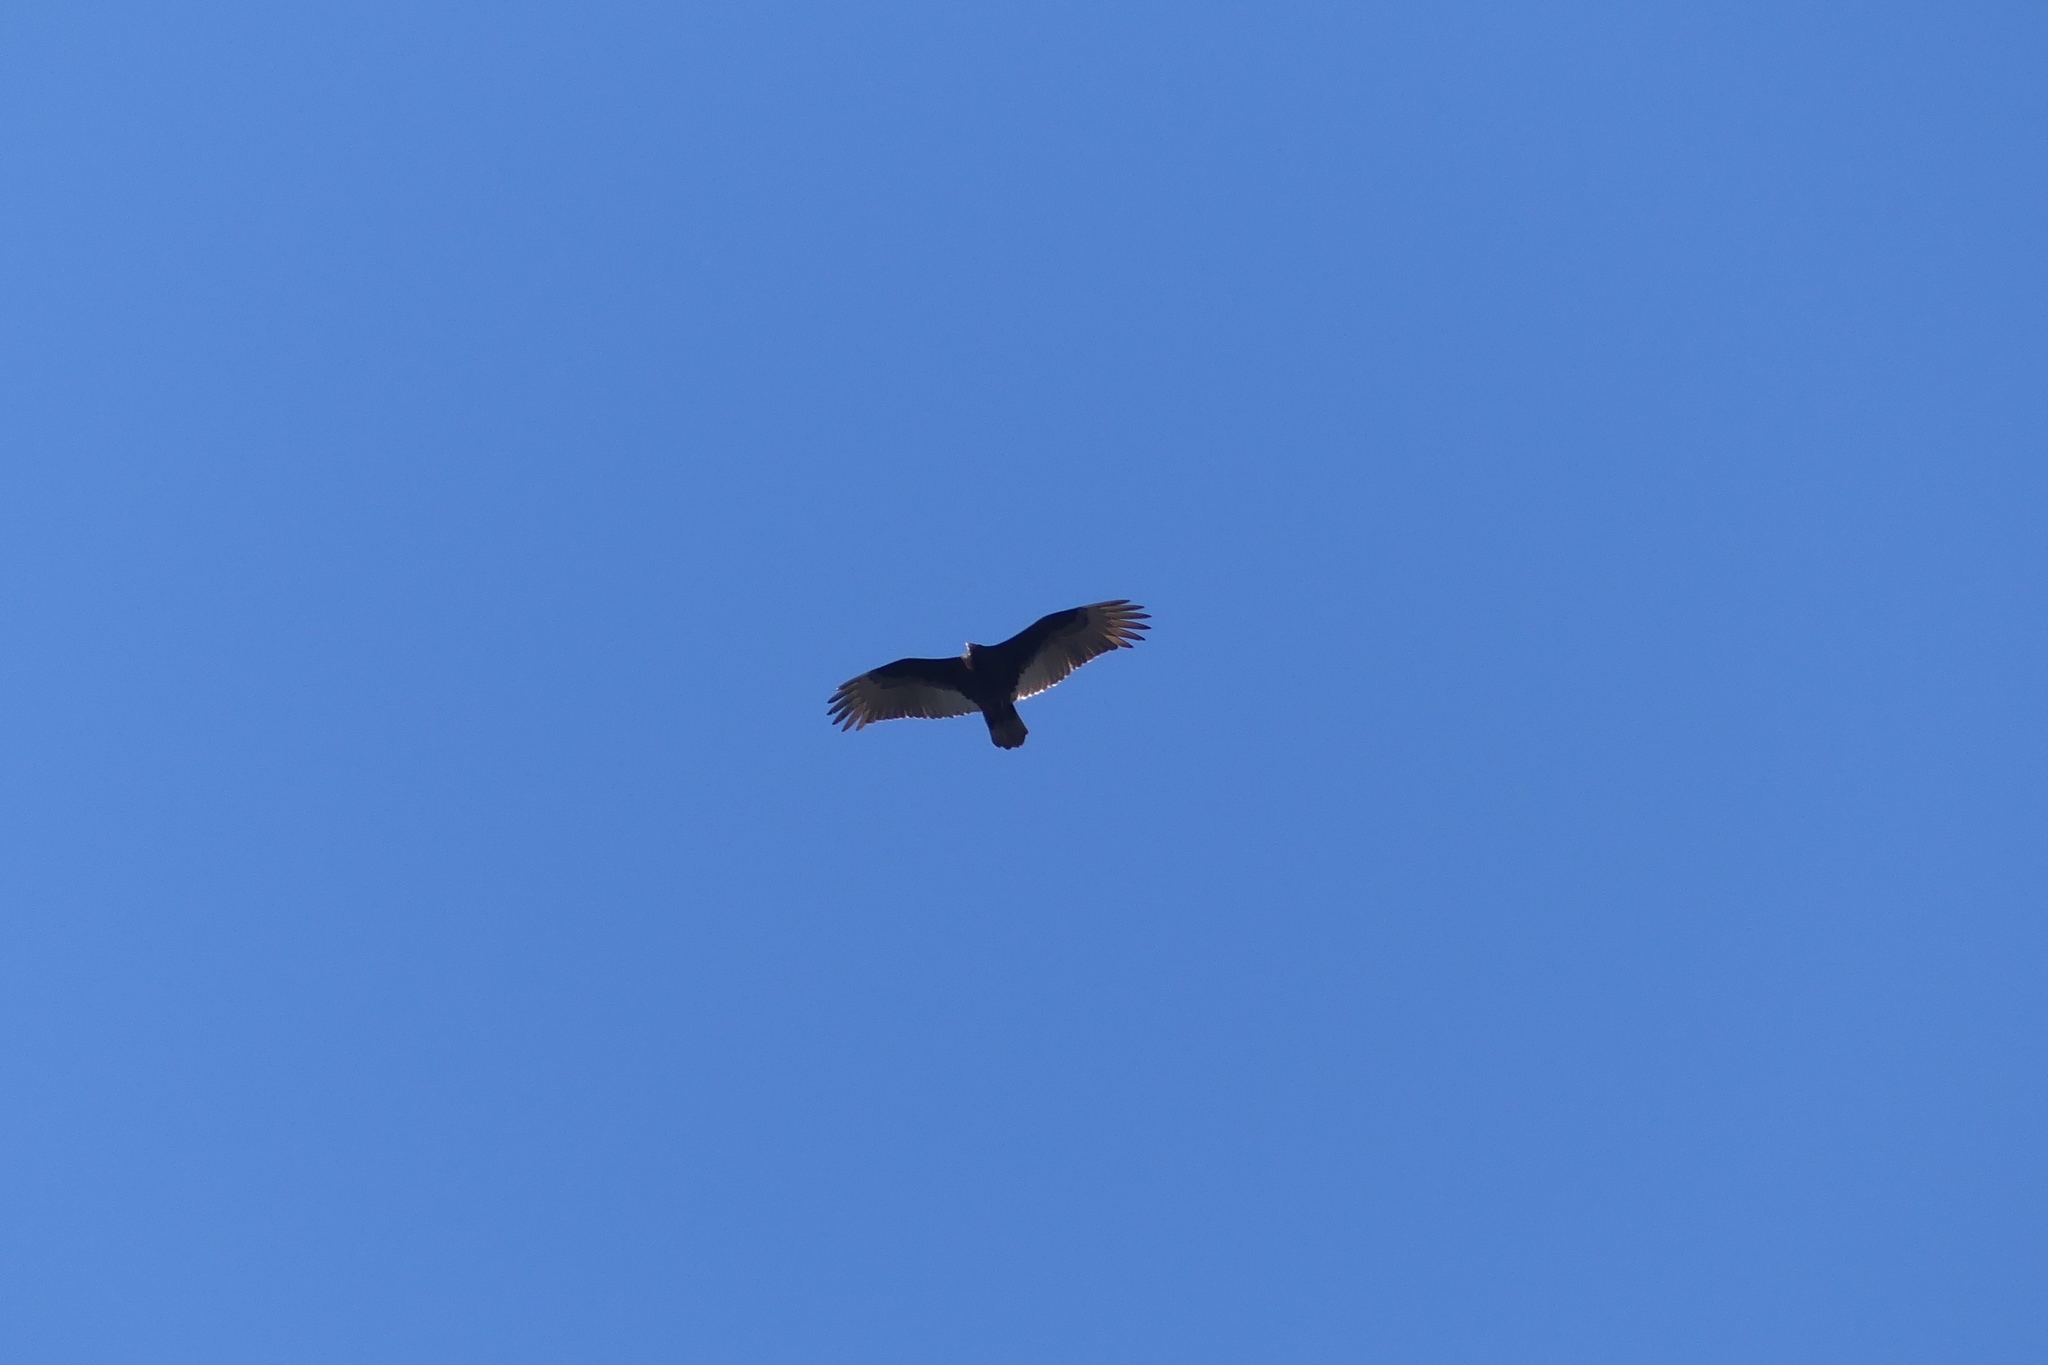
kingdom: Animalia
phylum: Chordata
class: Aves
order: Accipitriformes
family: Cathartidae
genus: Cathartes
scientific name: Cathartes aura
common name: Turkey vulture
